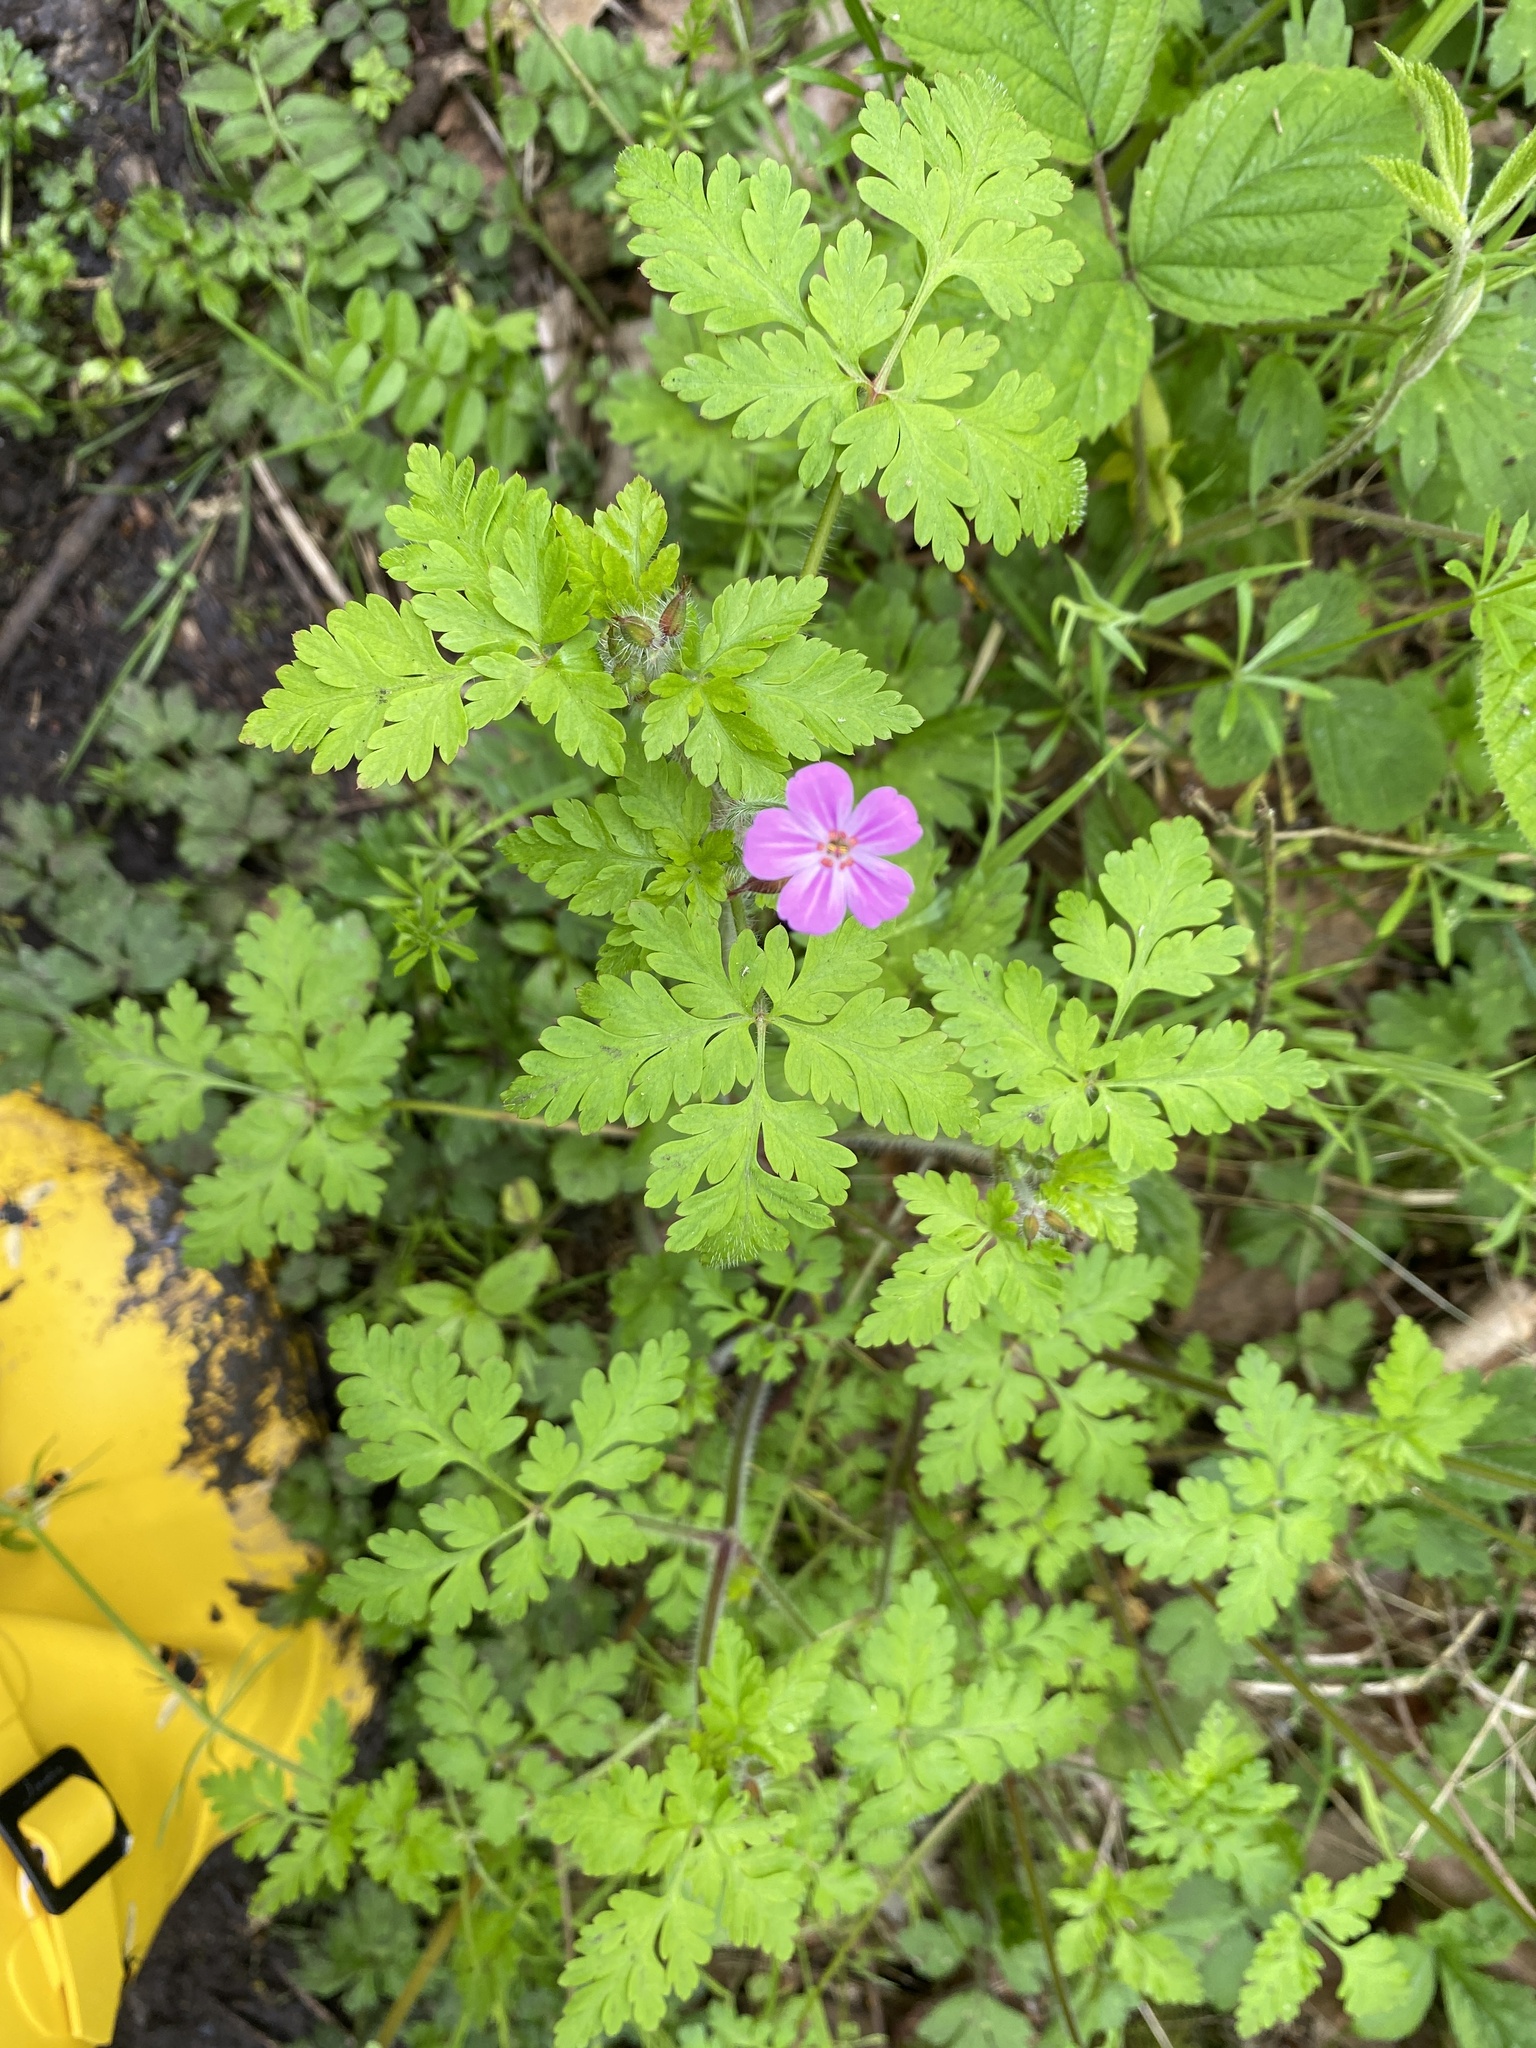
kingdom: Plantae
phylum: Tracheophyta
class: Magnoliopsida
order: Geraniales
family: Geraniaceae
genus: Geranium
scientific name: Geranium robertianum
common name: Herb-robert
